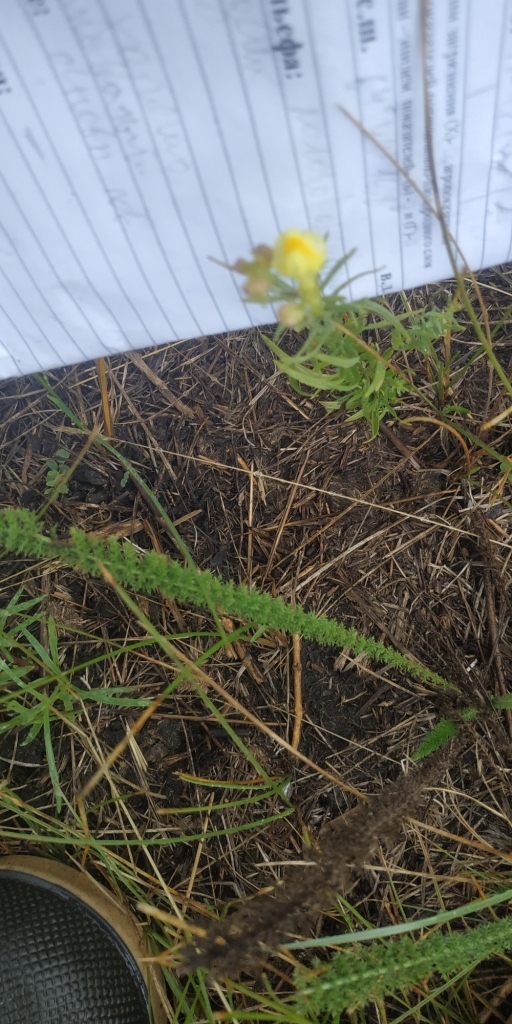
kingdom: Plantae
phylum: Tracheophyta
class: Magnoliopsida
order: Lamiales
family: Plantaginaceae
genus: Linaria
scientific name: Linaria vulgaris
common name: Butter and eggs
